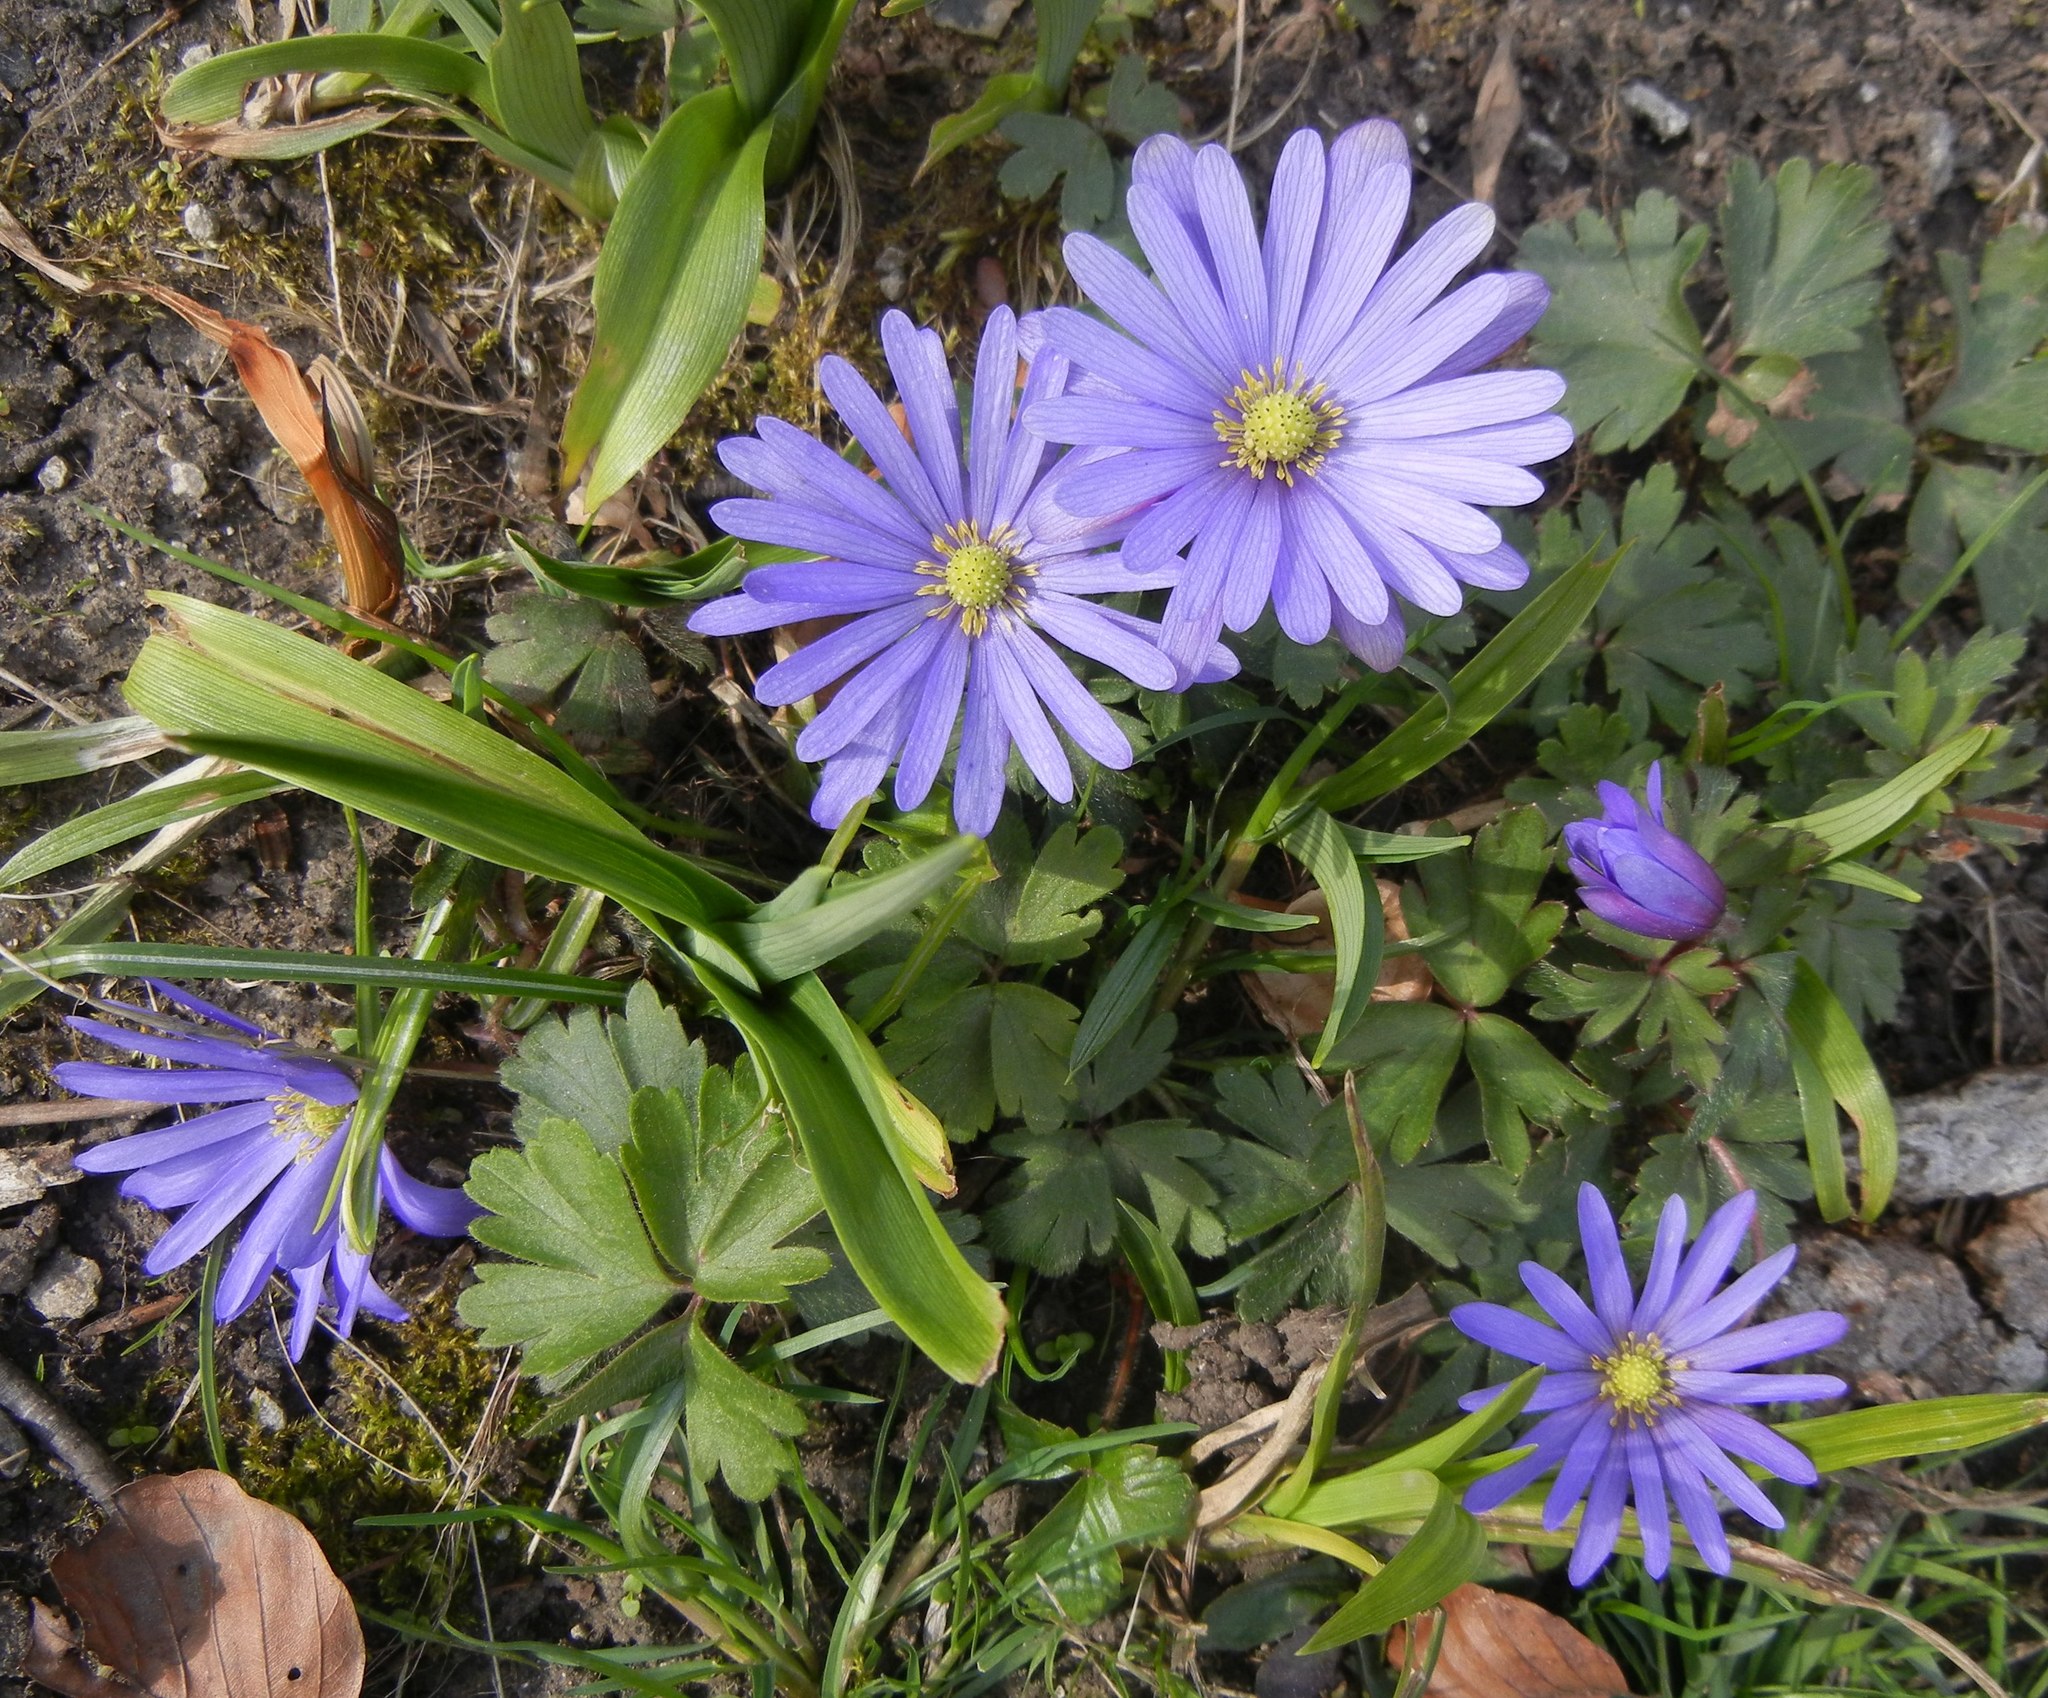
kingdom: Plantae
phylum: Tracheophyta
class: Magnoliopsida
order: Ranunculales
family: Ranunculaceae
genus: Anemone
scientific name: Anemone blanda
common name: Balkan anemone
